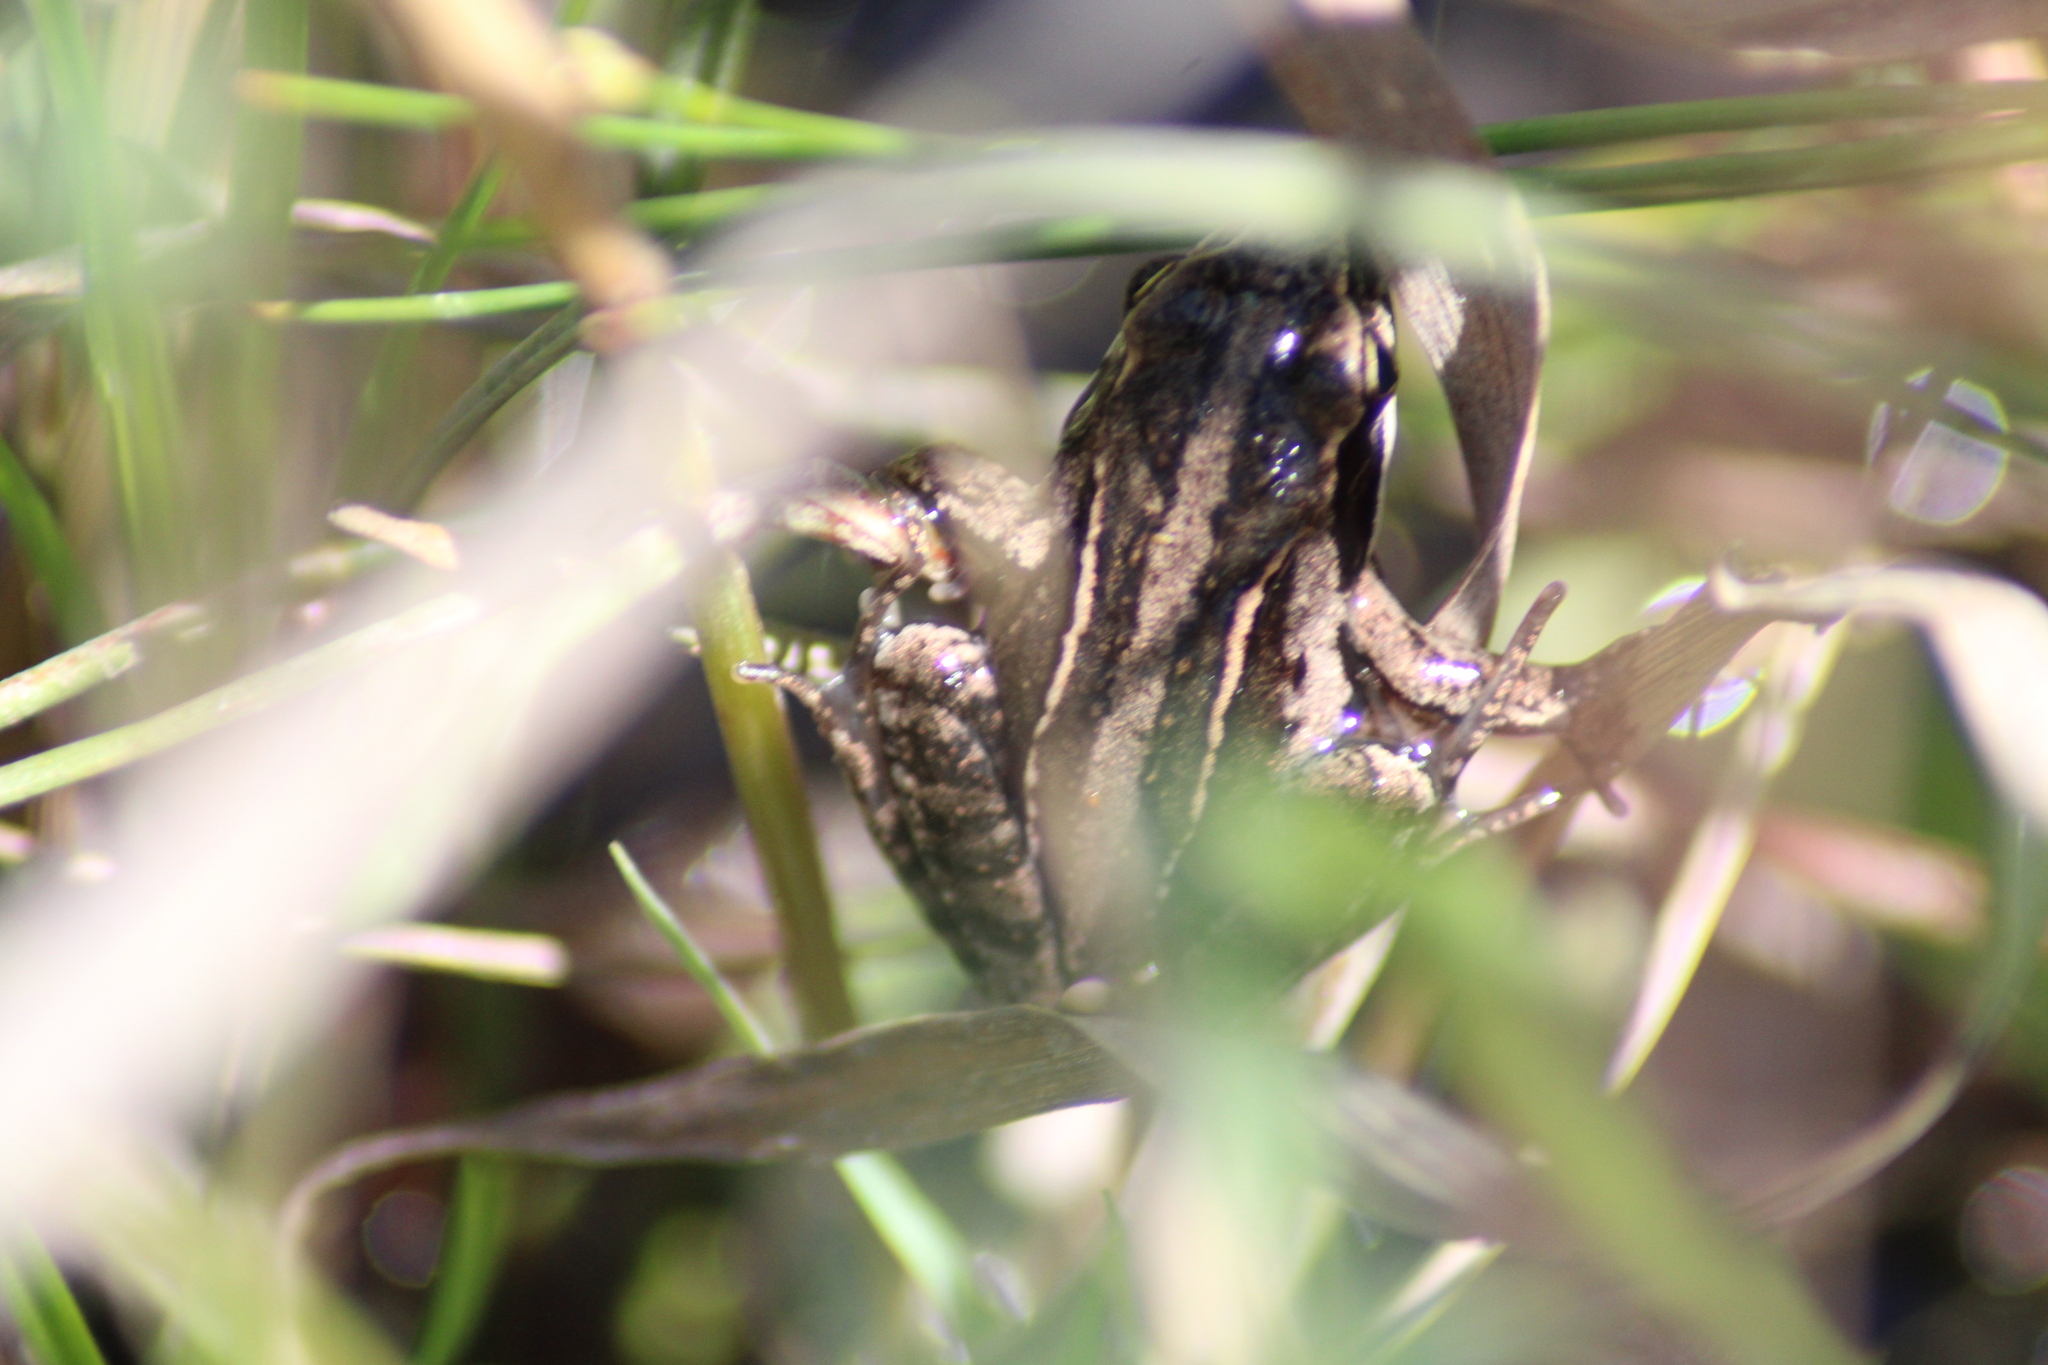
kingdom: Animalia
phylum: Chordata
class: Amphibia
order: Anura
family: Ranidae
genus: Rana
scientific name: Rana arvalis
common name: Moor frog
